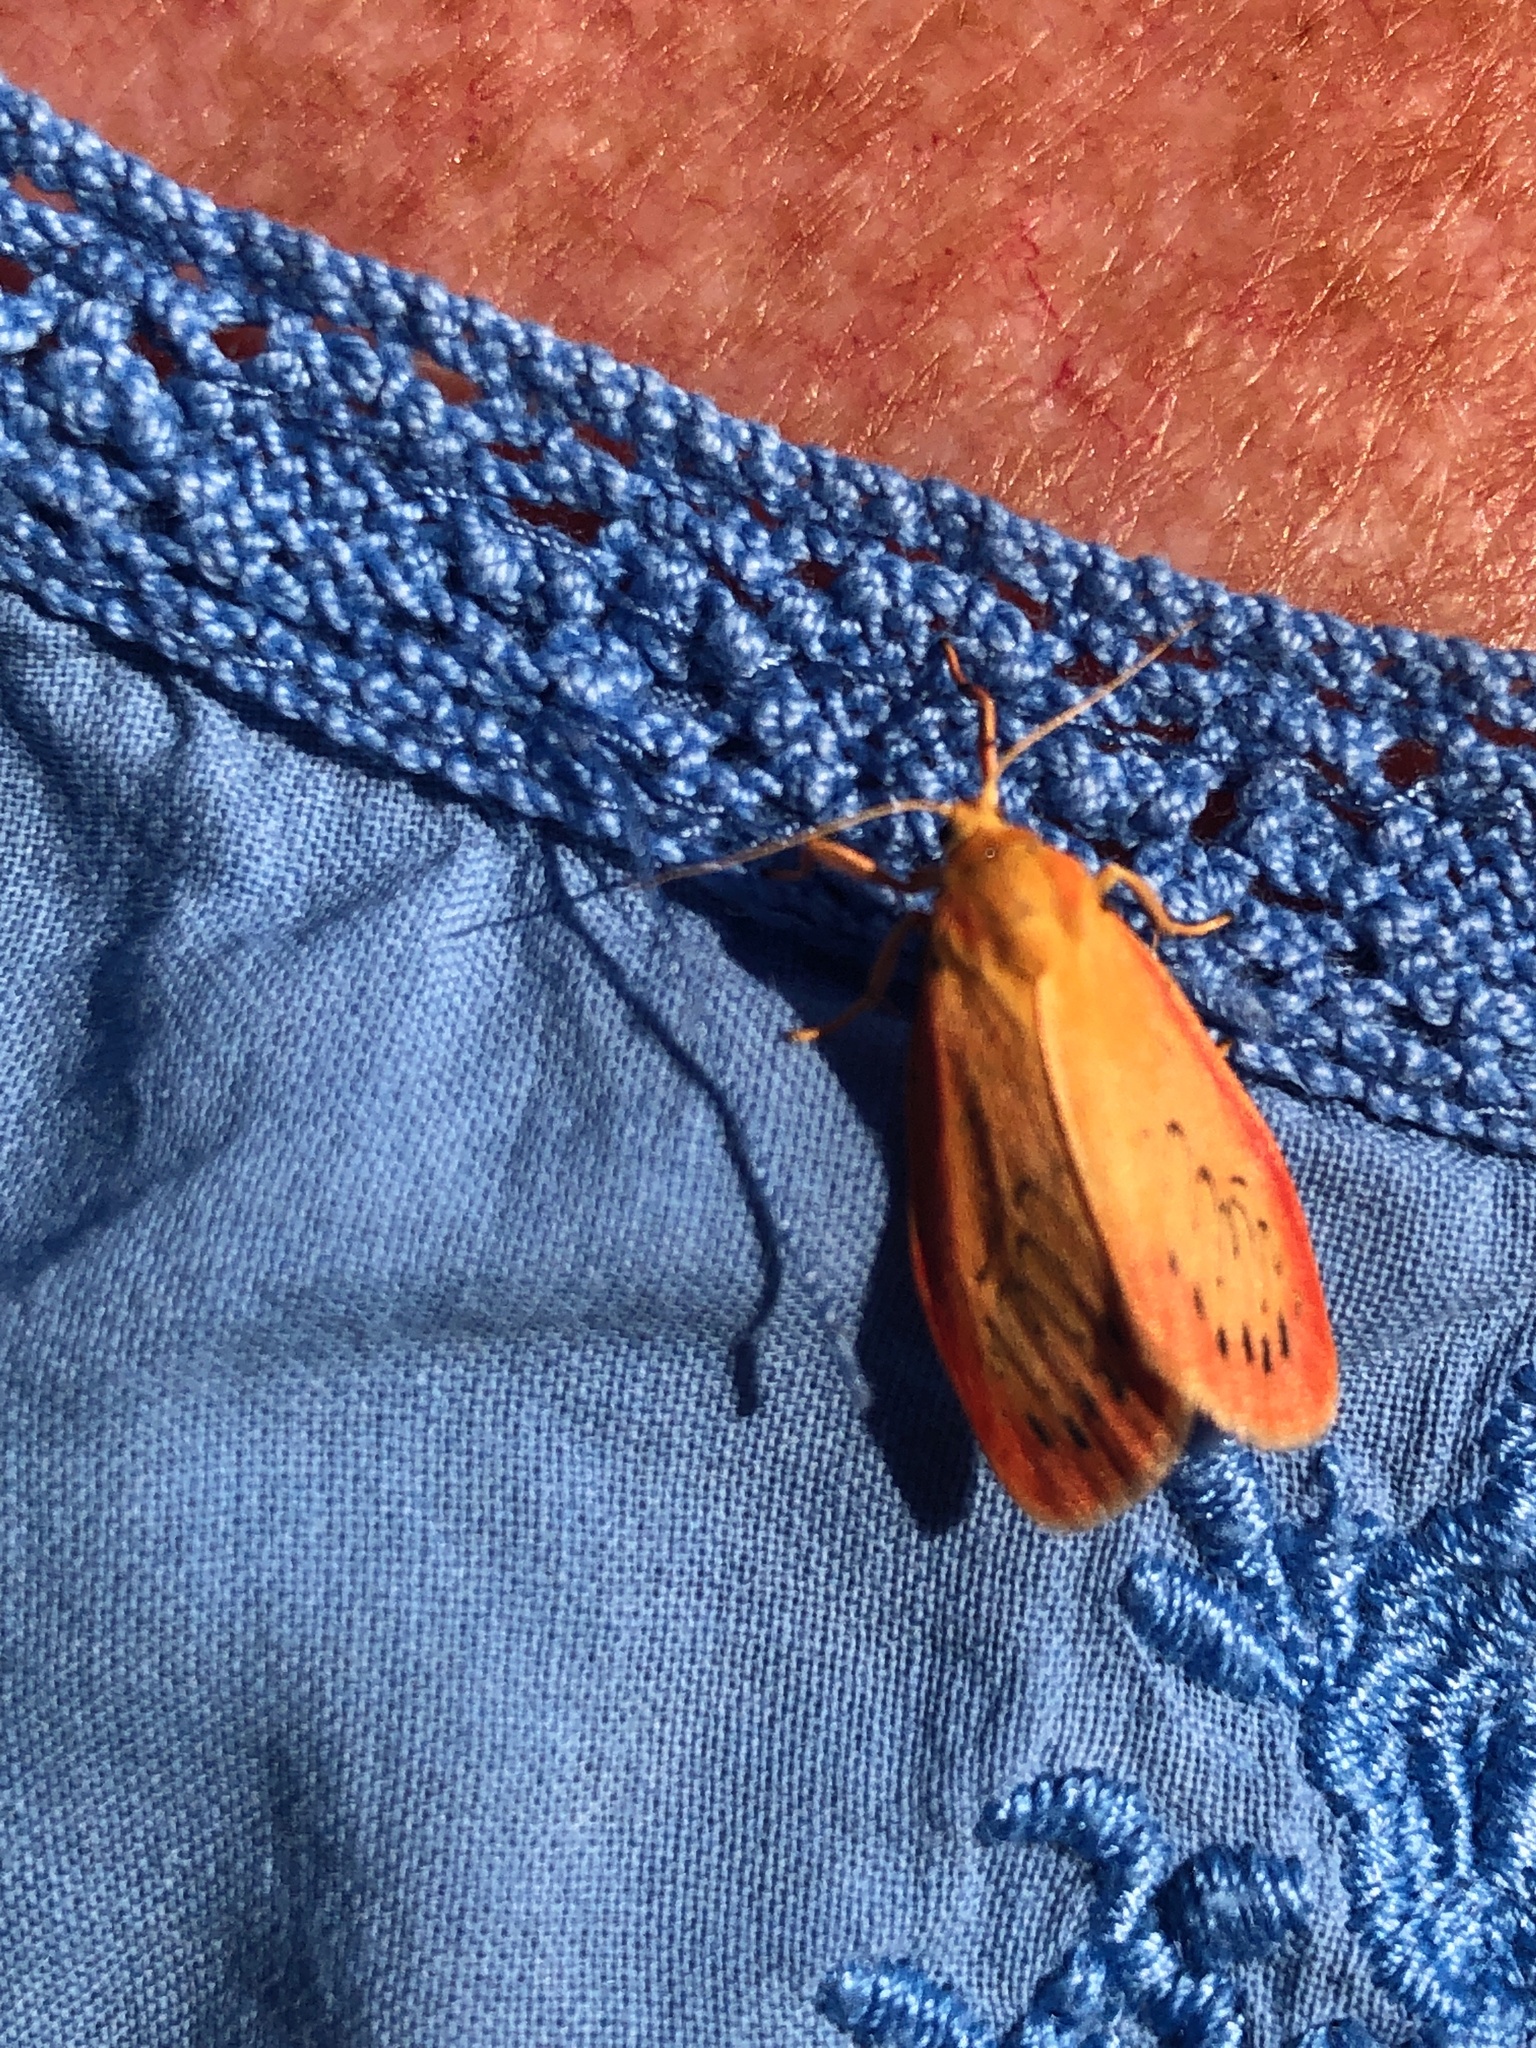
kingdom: Animalia
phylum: Arthropoda
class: Insecta
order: Lepidoptera
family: Erebidae
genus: Miltochrista
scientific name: Miltochrista miniata
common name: Rosy footman
